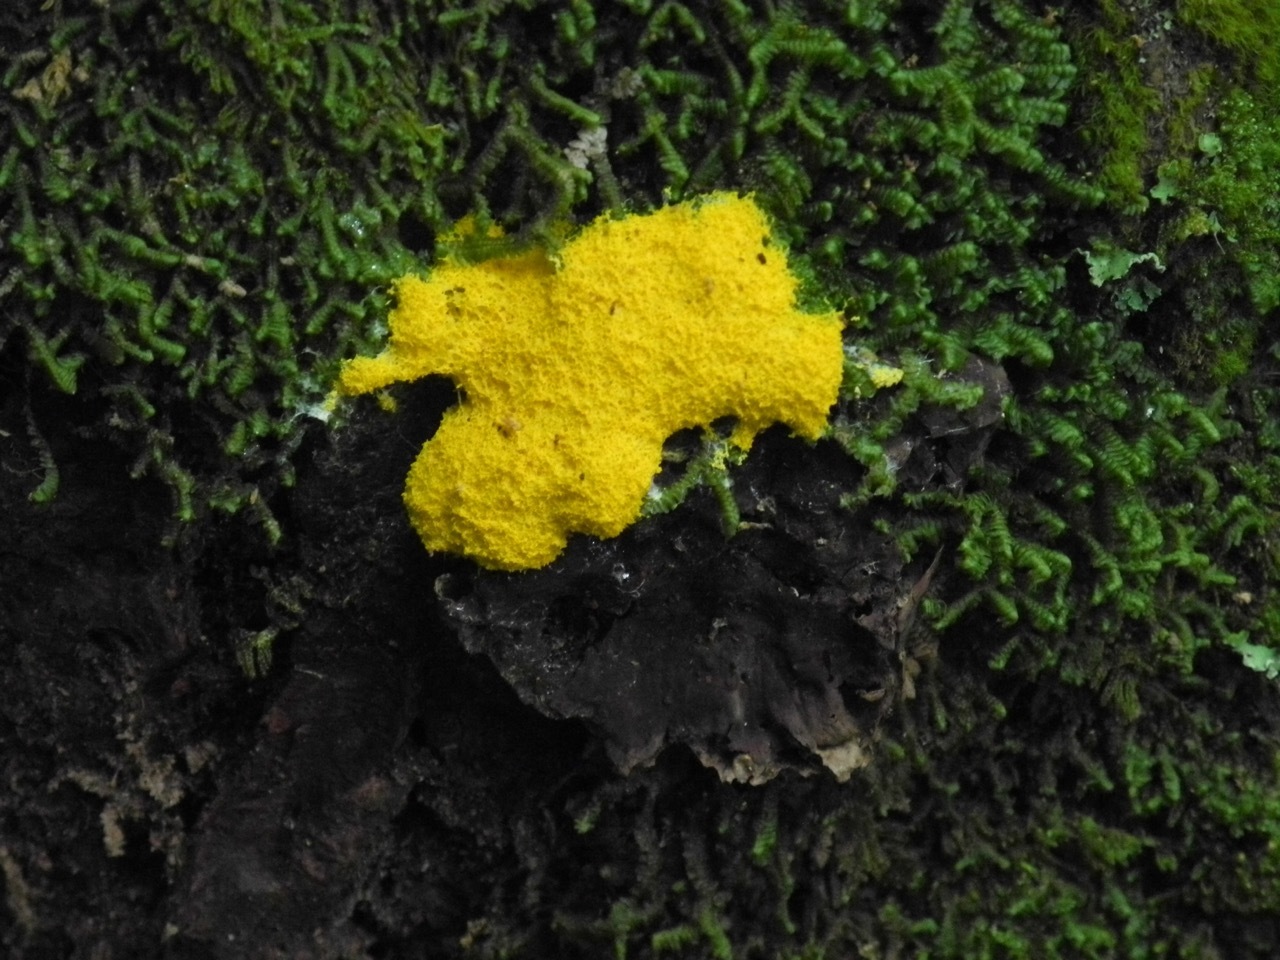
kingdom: Protozoa
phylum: Mycetozoa
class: Myxomycetes
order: Physarales
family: Physaraceae
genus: Fuligo
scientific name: Fuligo septica
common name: Dog vomit slime mold
